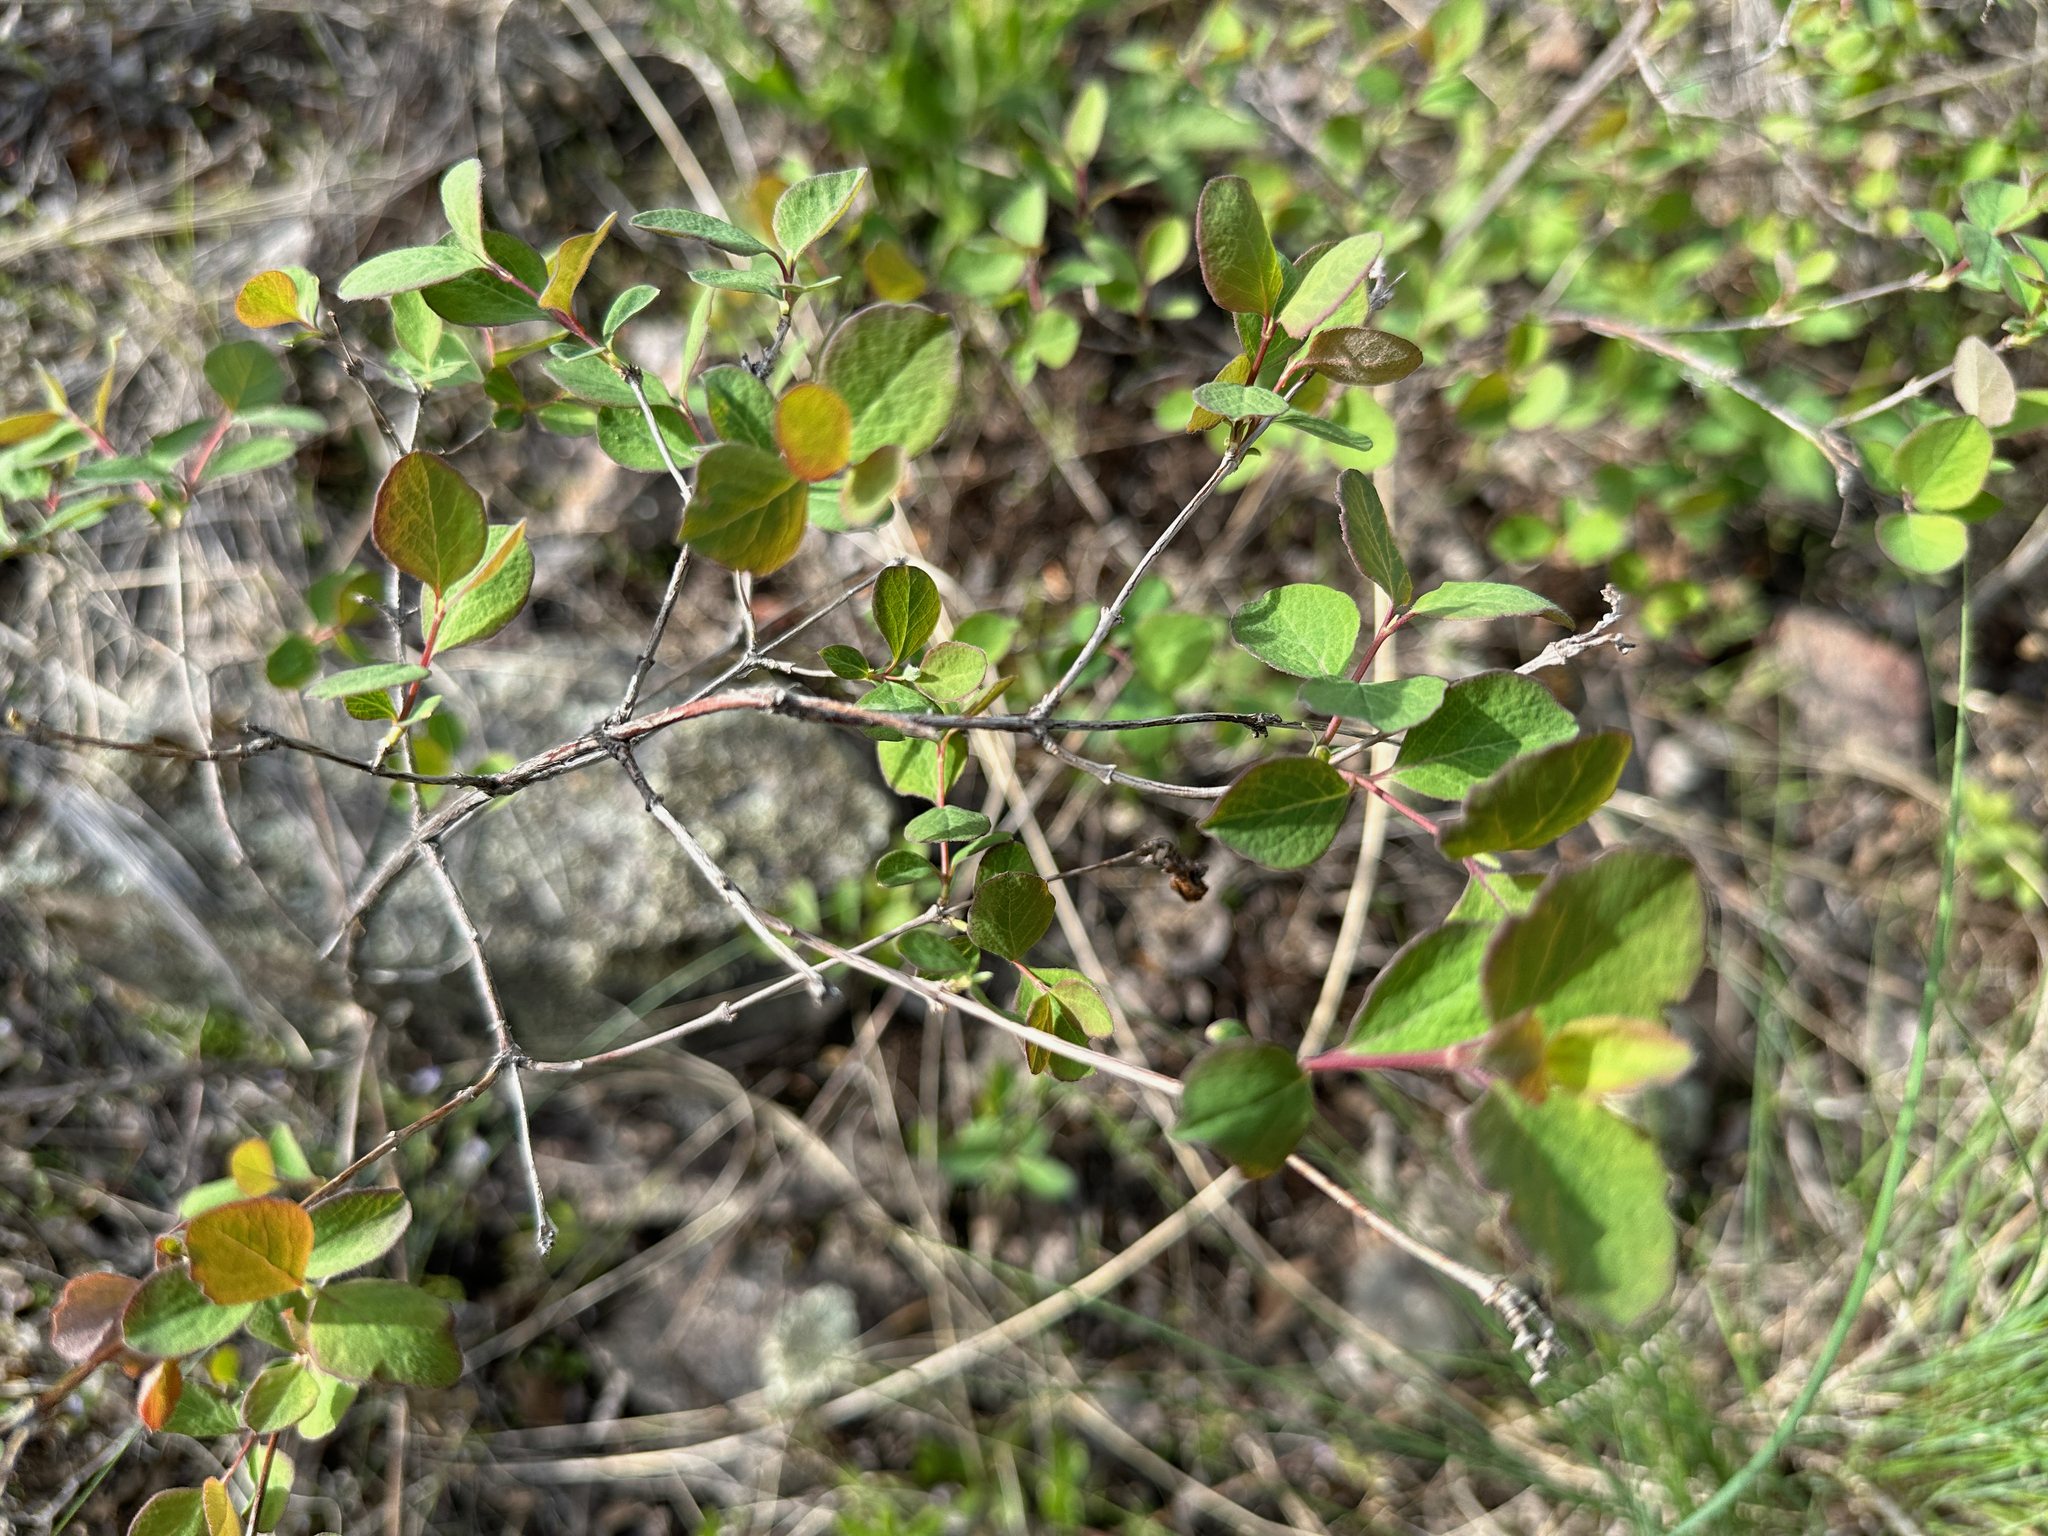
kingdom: Plantae
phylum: Tracheophyta
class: Magnoliopsida
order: Dipsacales
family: Caprifoliaceae
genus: Symphoricarpos
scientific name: Symphoricarpos albus
